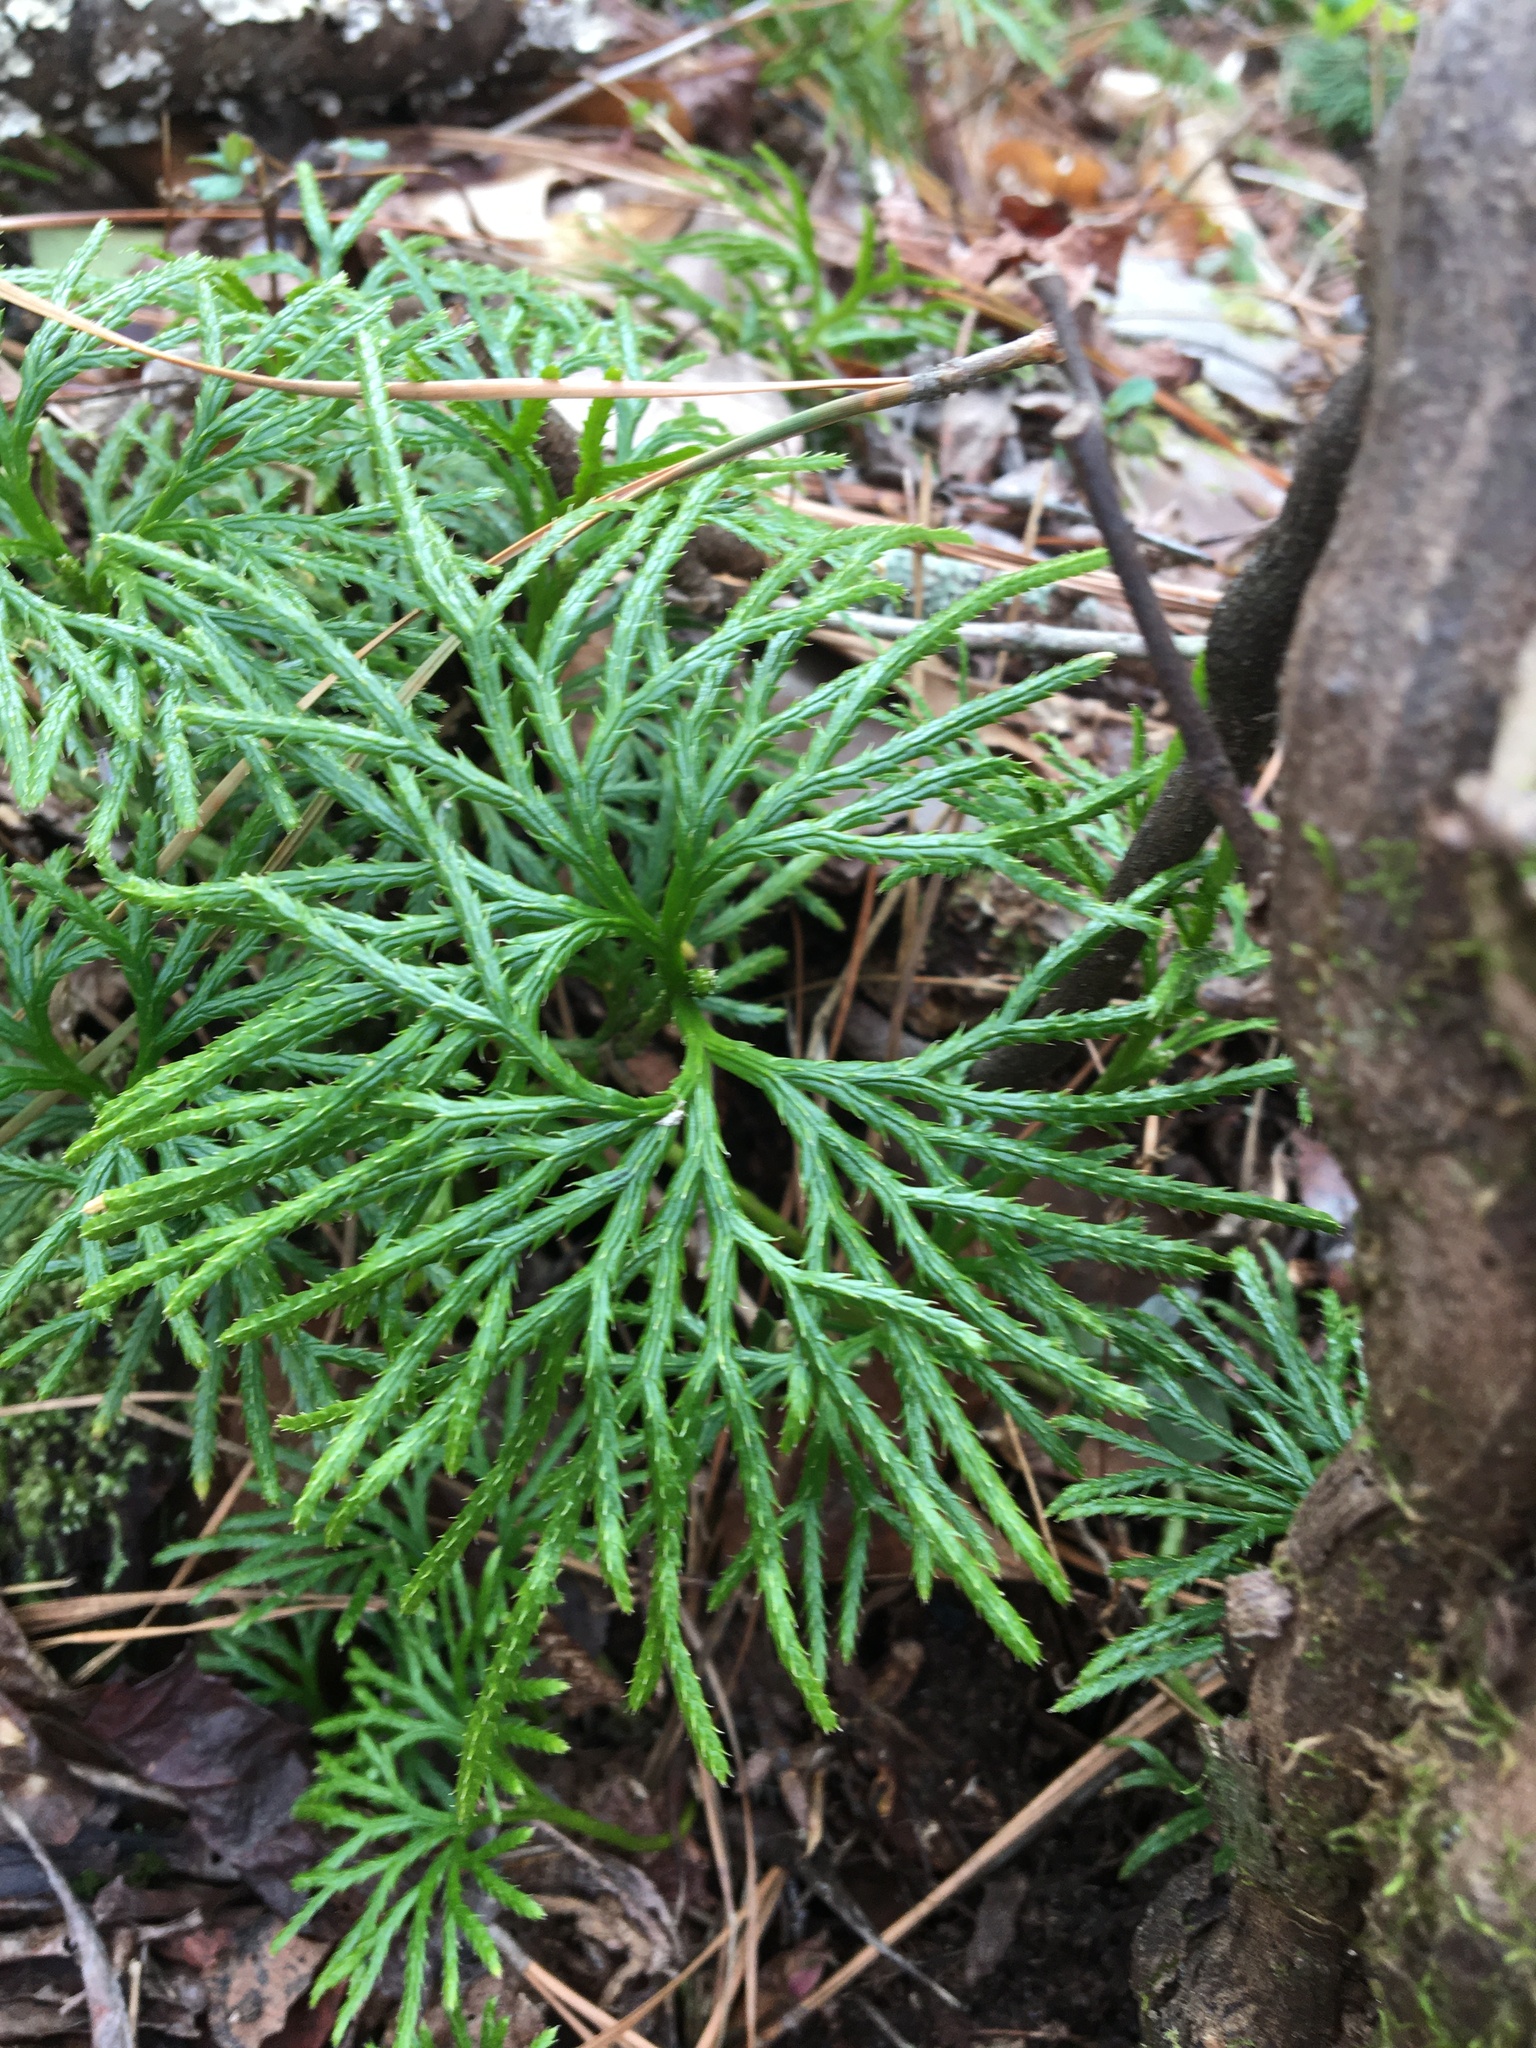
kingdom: Plantae
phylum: Tracheophyta
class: Lycopodiopsida
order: Lycopodiales
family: Lycopodiaceae
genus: Diphasiastrum
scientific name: Diphasiastrum digitatum
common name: Southern running-pine
